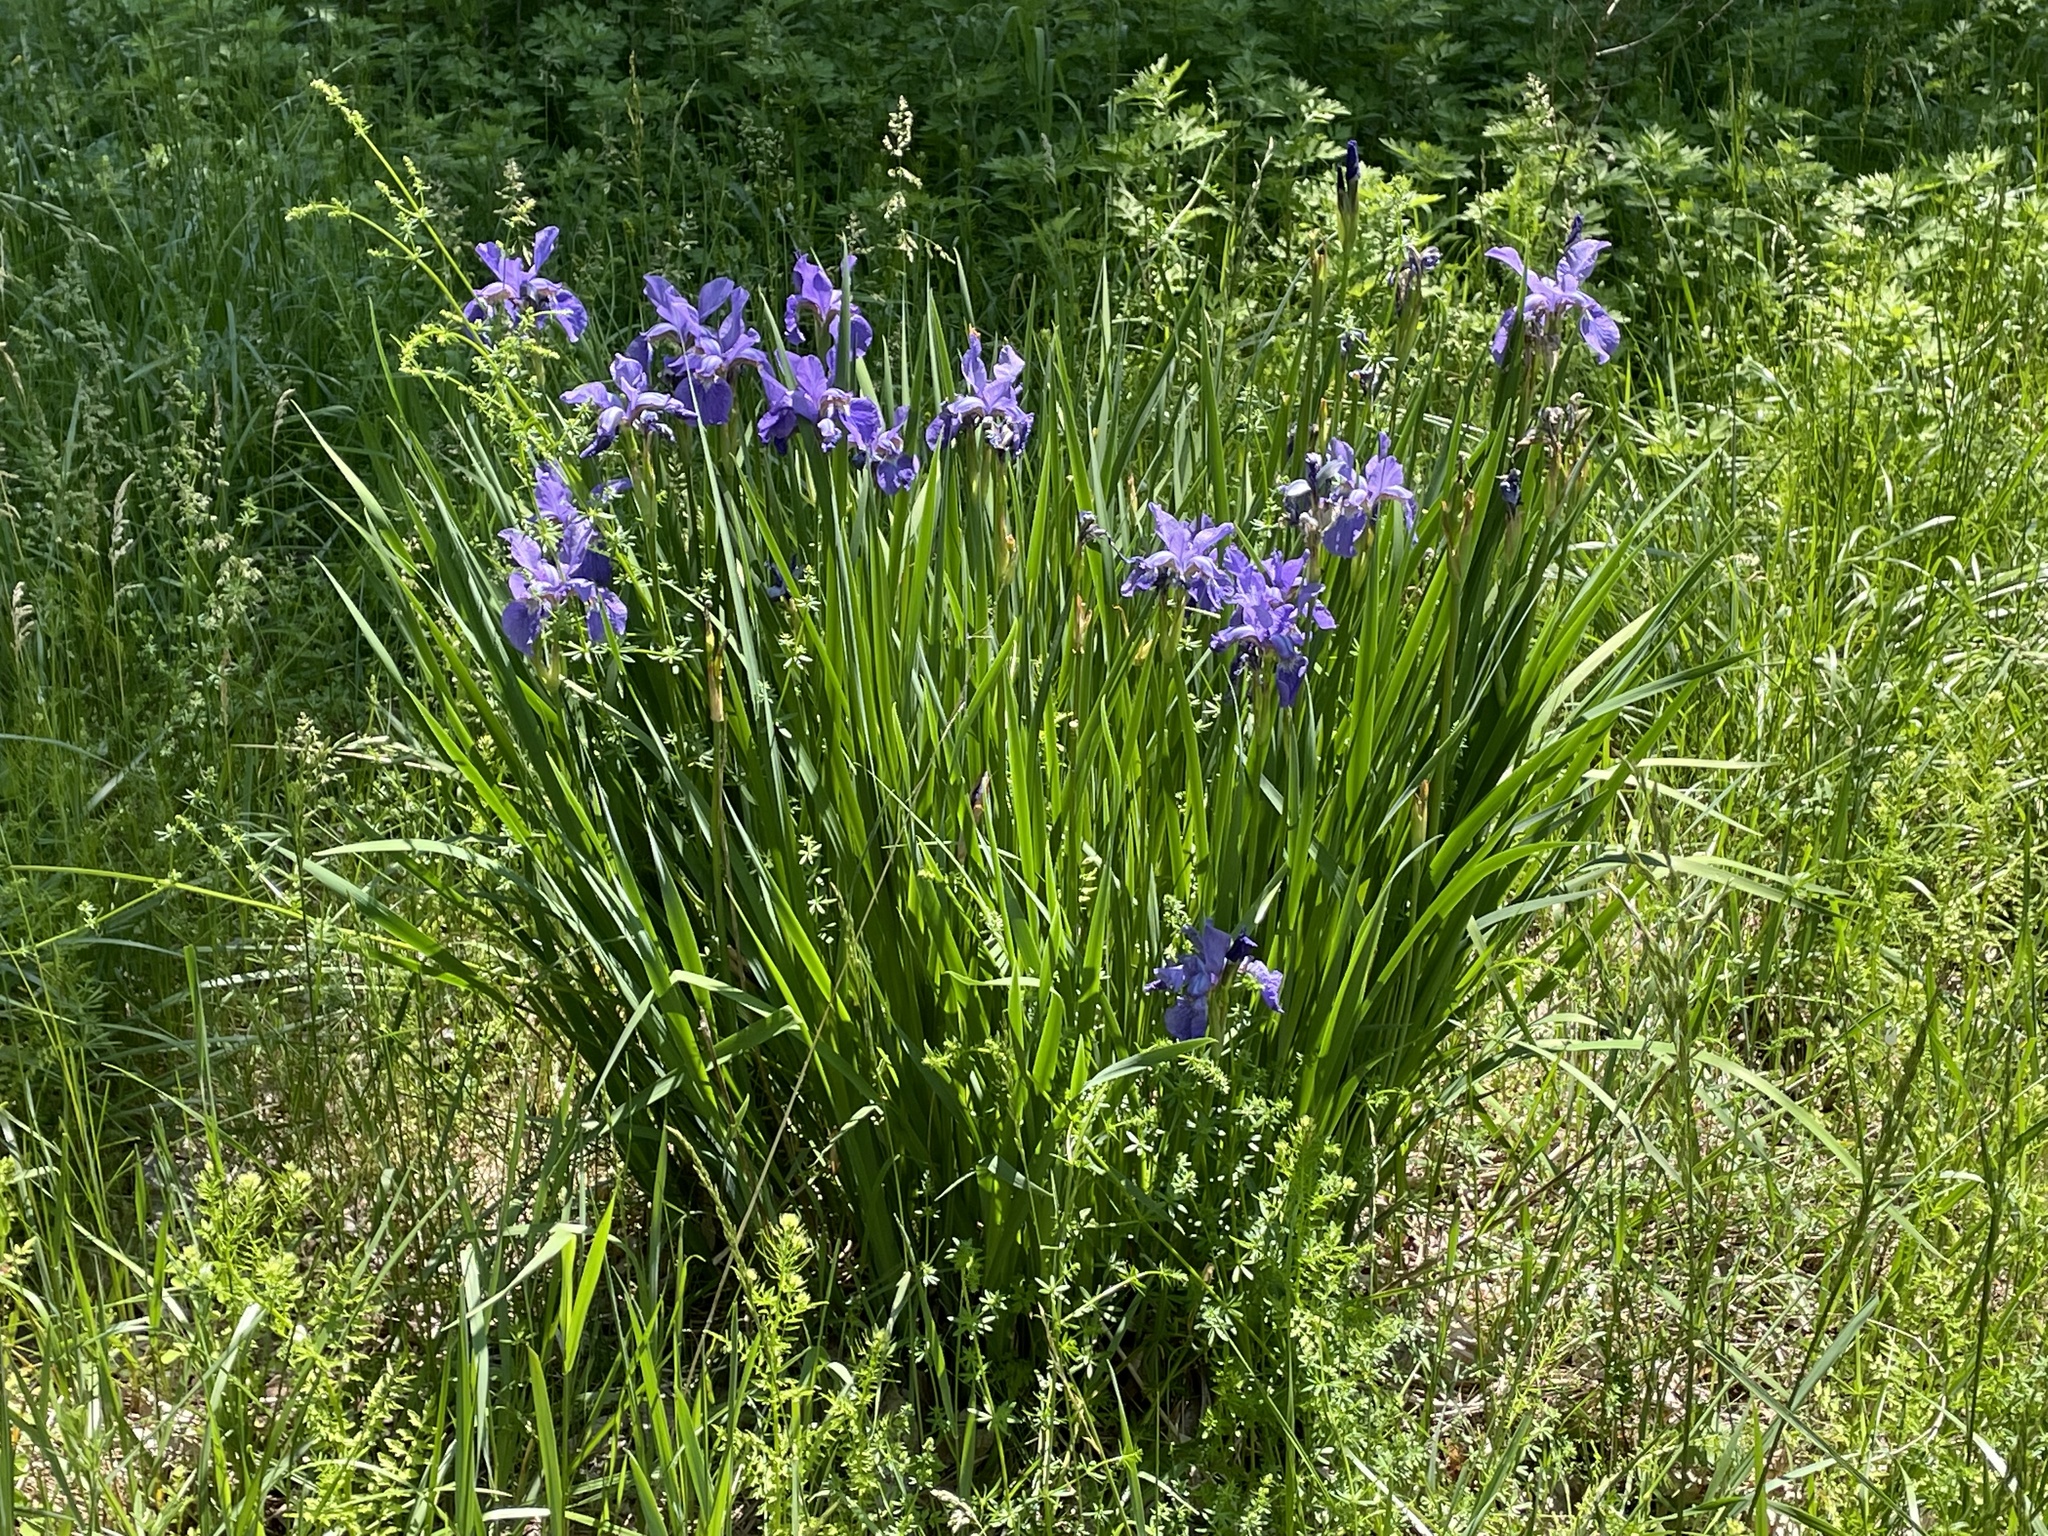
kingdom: Plantae
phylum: Tracheophyta
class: Liliopsida
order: Asparagales
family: Iridaceae
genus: Iris
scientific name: Iris sanguinea
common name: Blood iris
